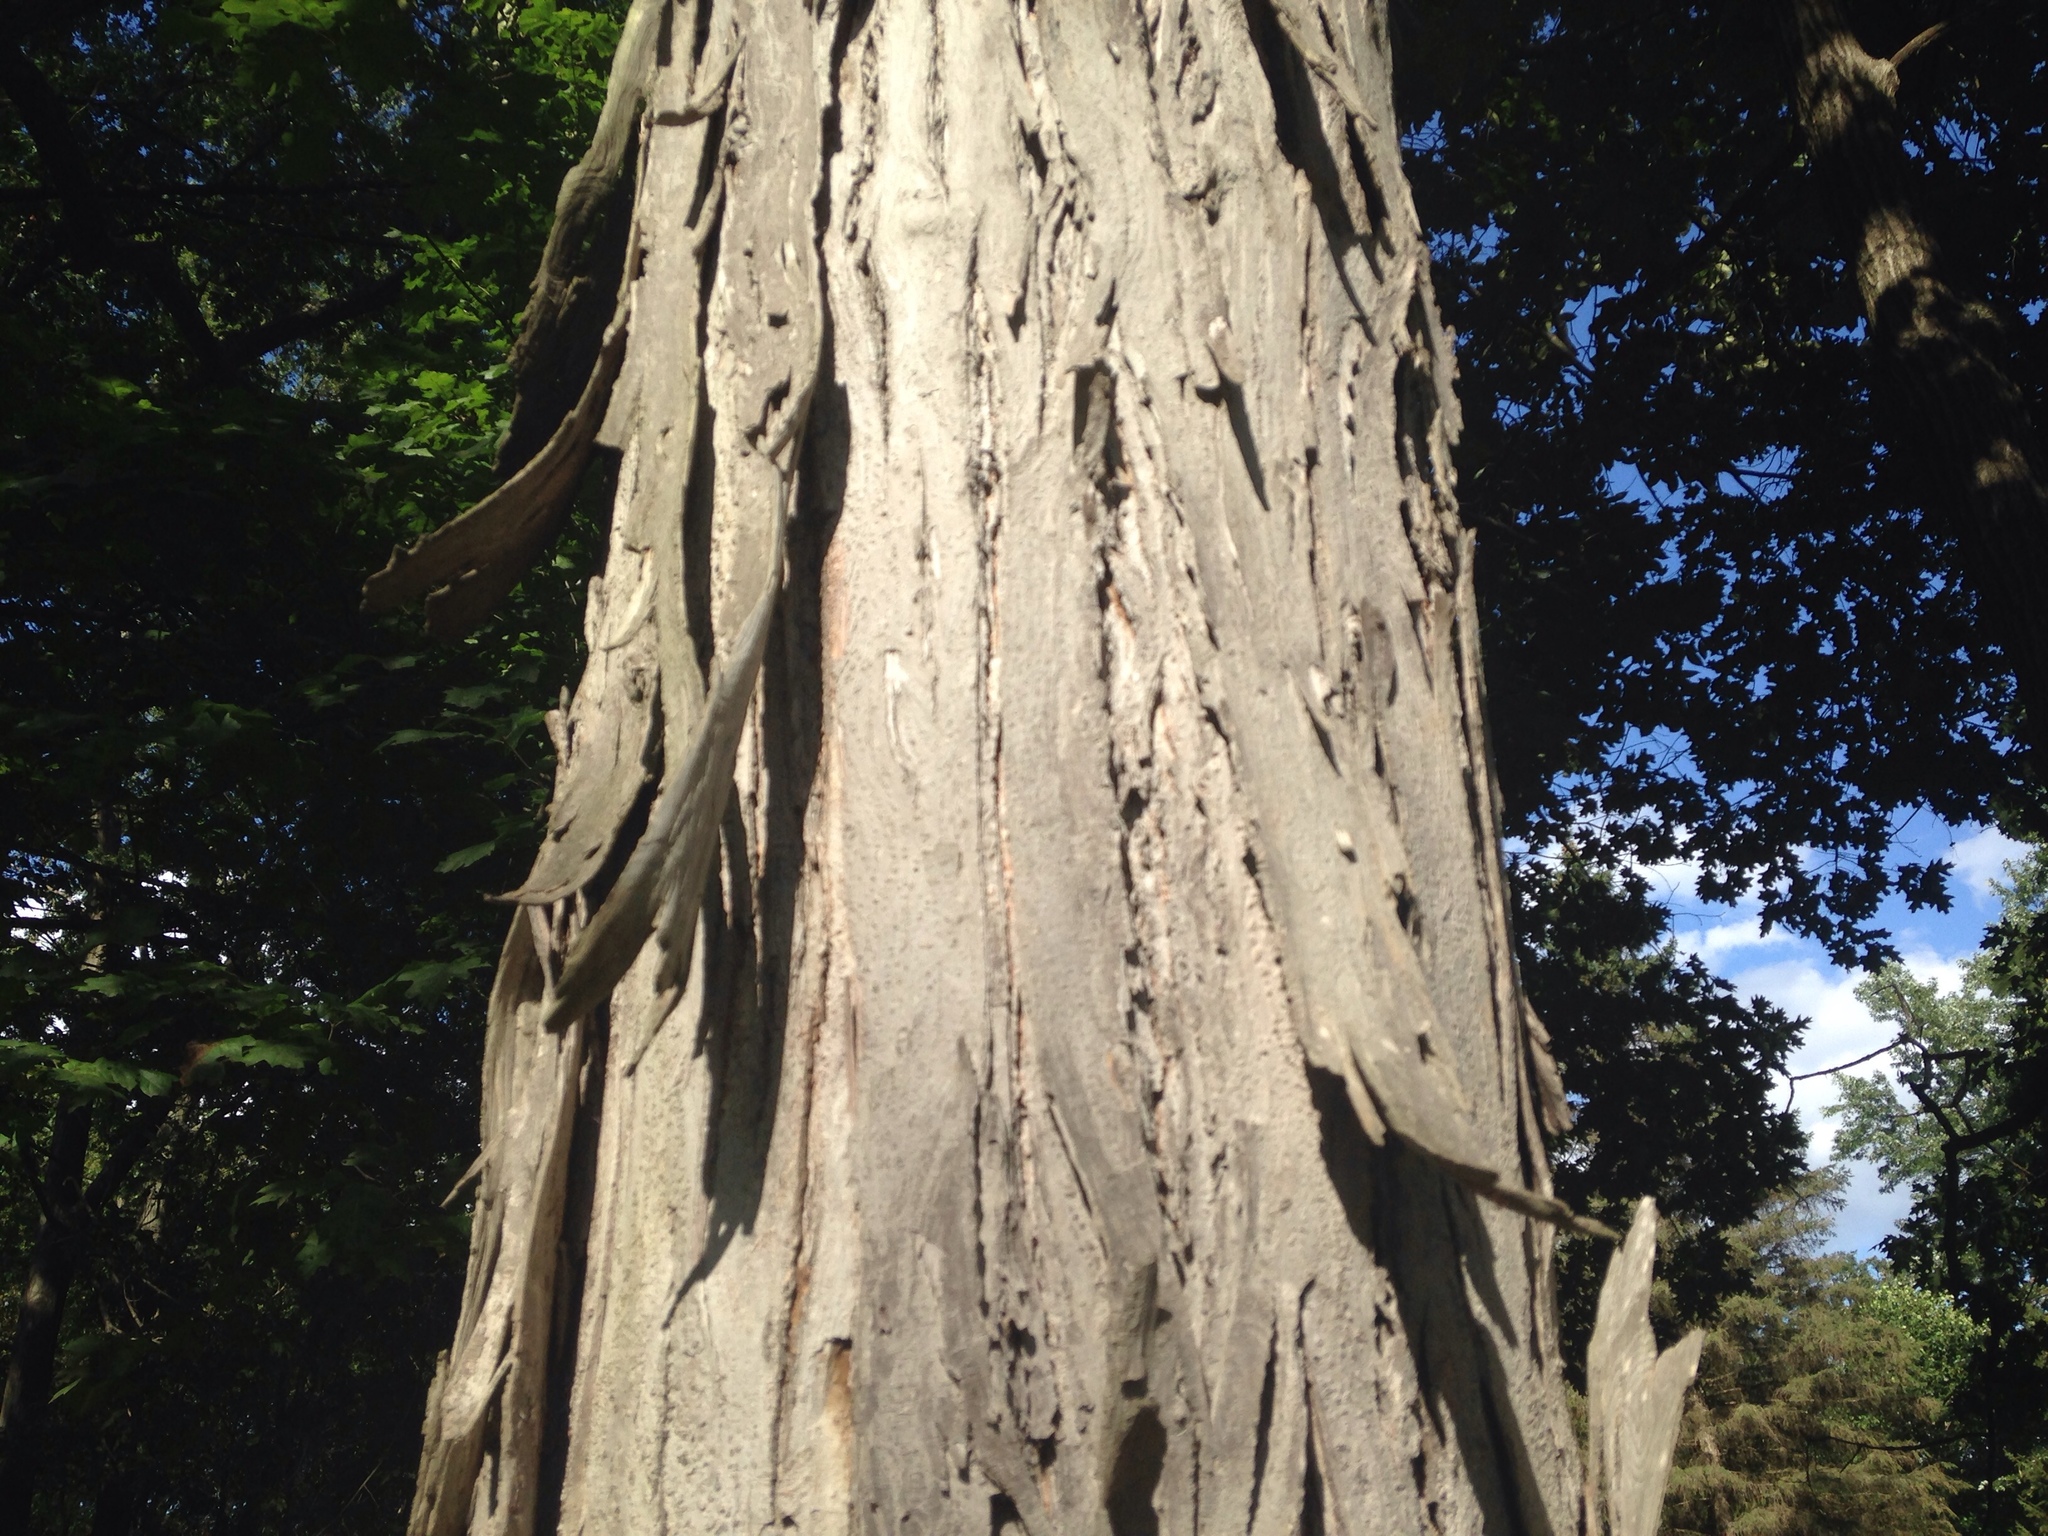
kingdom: Plantae
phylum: Tracheophyta
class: Magnoliopsida
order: Fagales
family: Juglandaceae
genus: Carya
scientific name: Carya ovata
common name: Shagbark hickory
